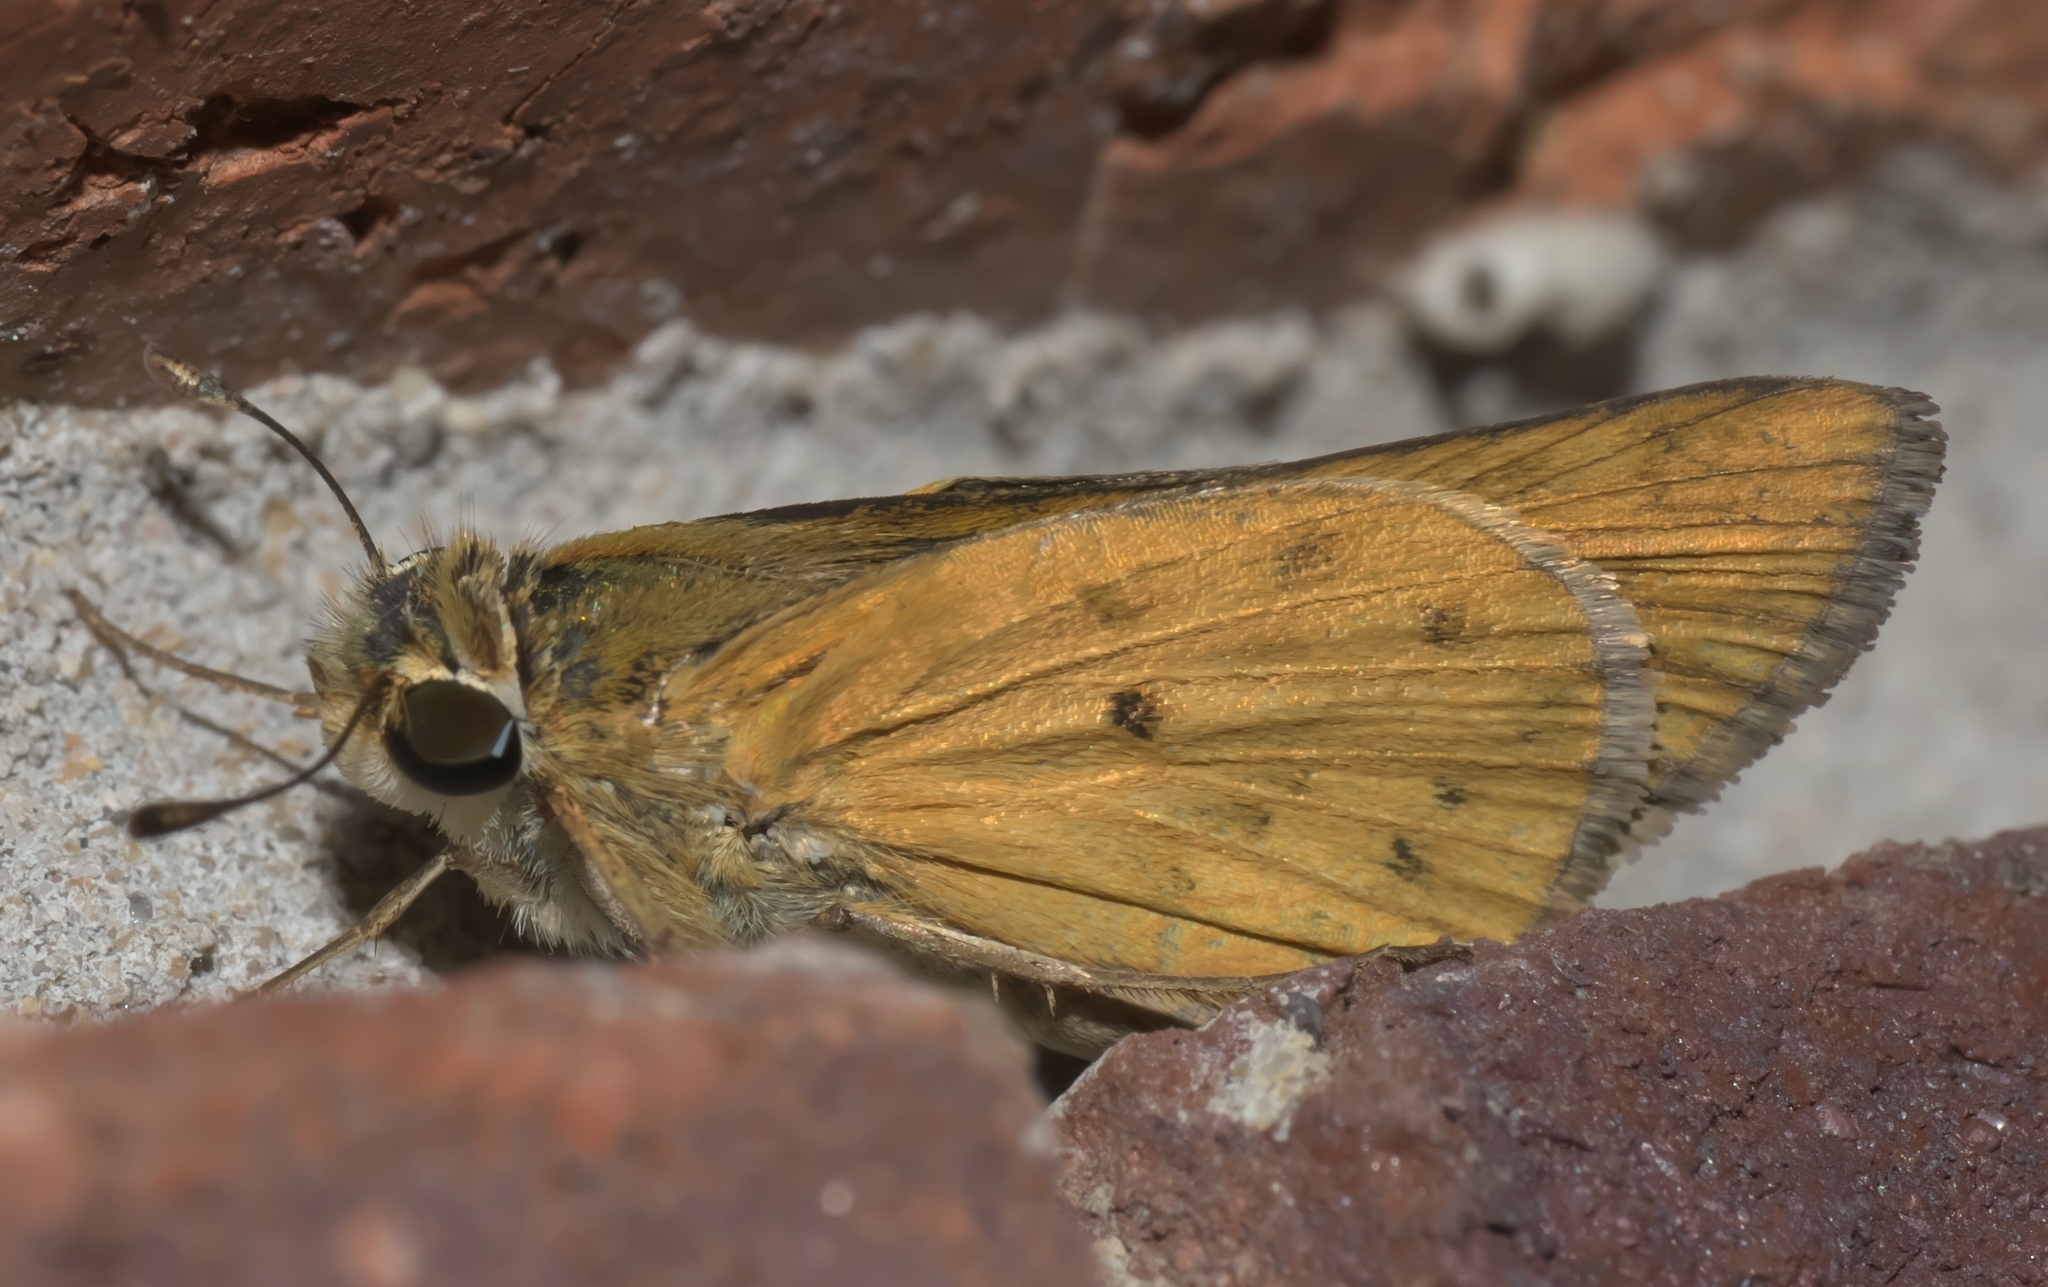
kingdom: Animalia
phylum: Arthropoda
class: Insecta
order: Lepidoptera
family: Hesperiidae
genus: Hylephila
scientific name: Hylephila phyleus
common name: Fiery skipper
